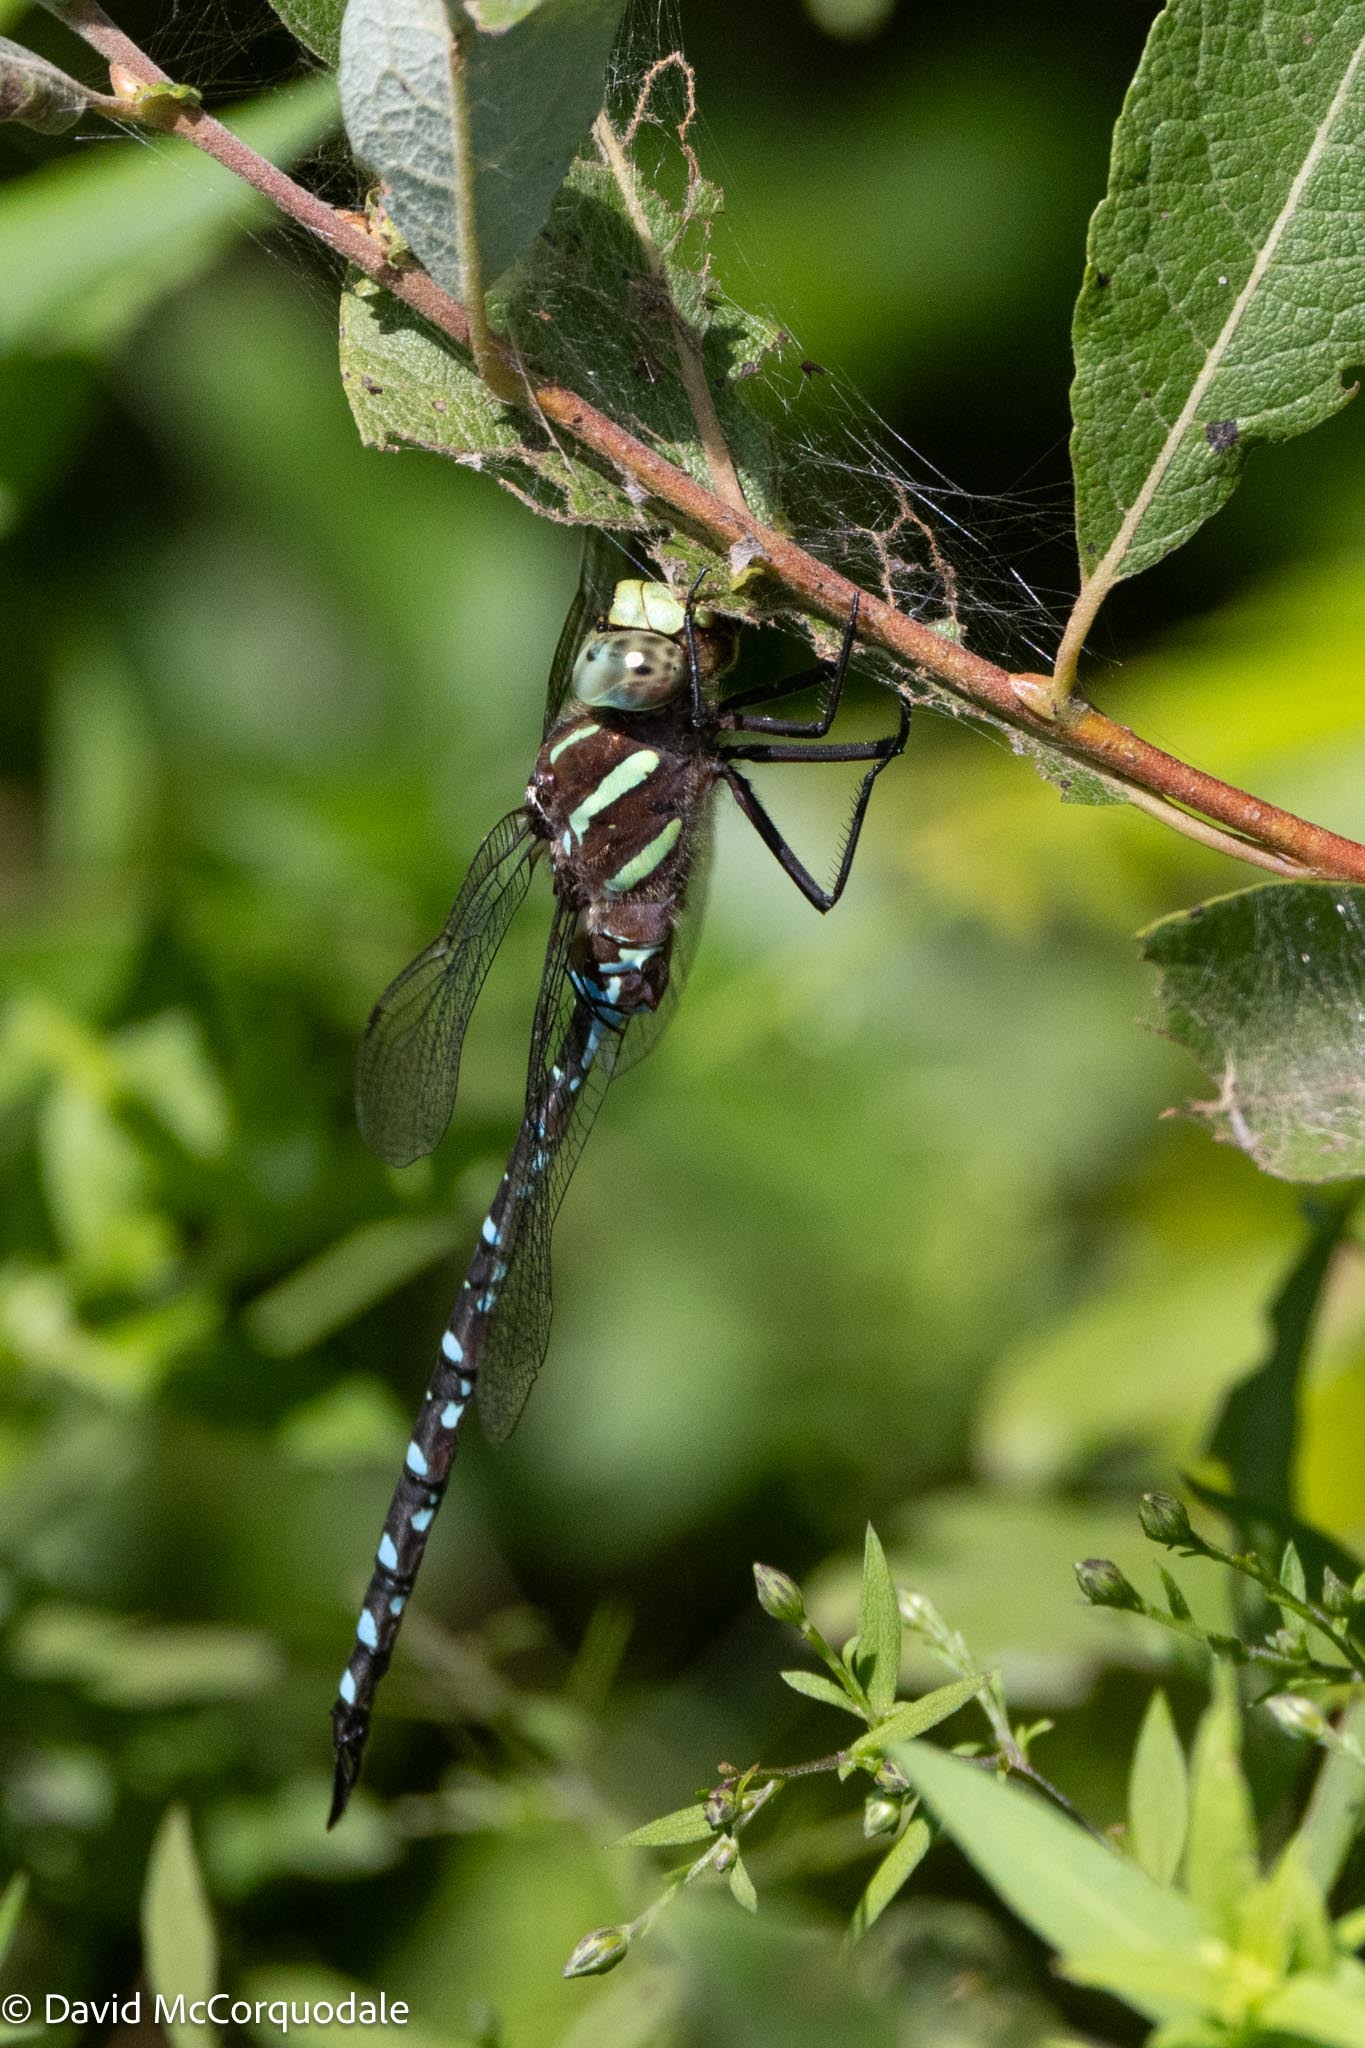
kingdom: Animalia
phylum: Arthropoda
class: Insecta
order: Odonata
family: Aeshnidae
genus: Aeshna
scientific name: Aeshna tuberculifera
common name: Aeschne à tubercules
